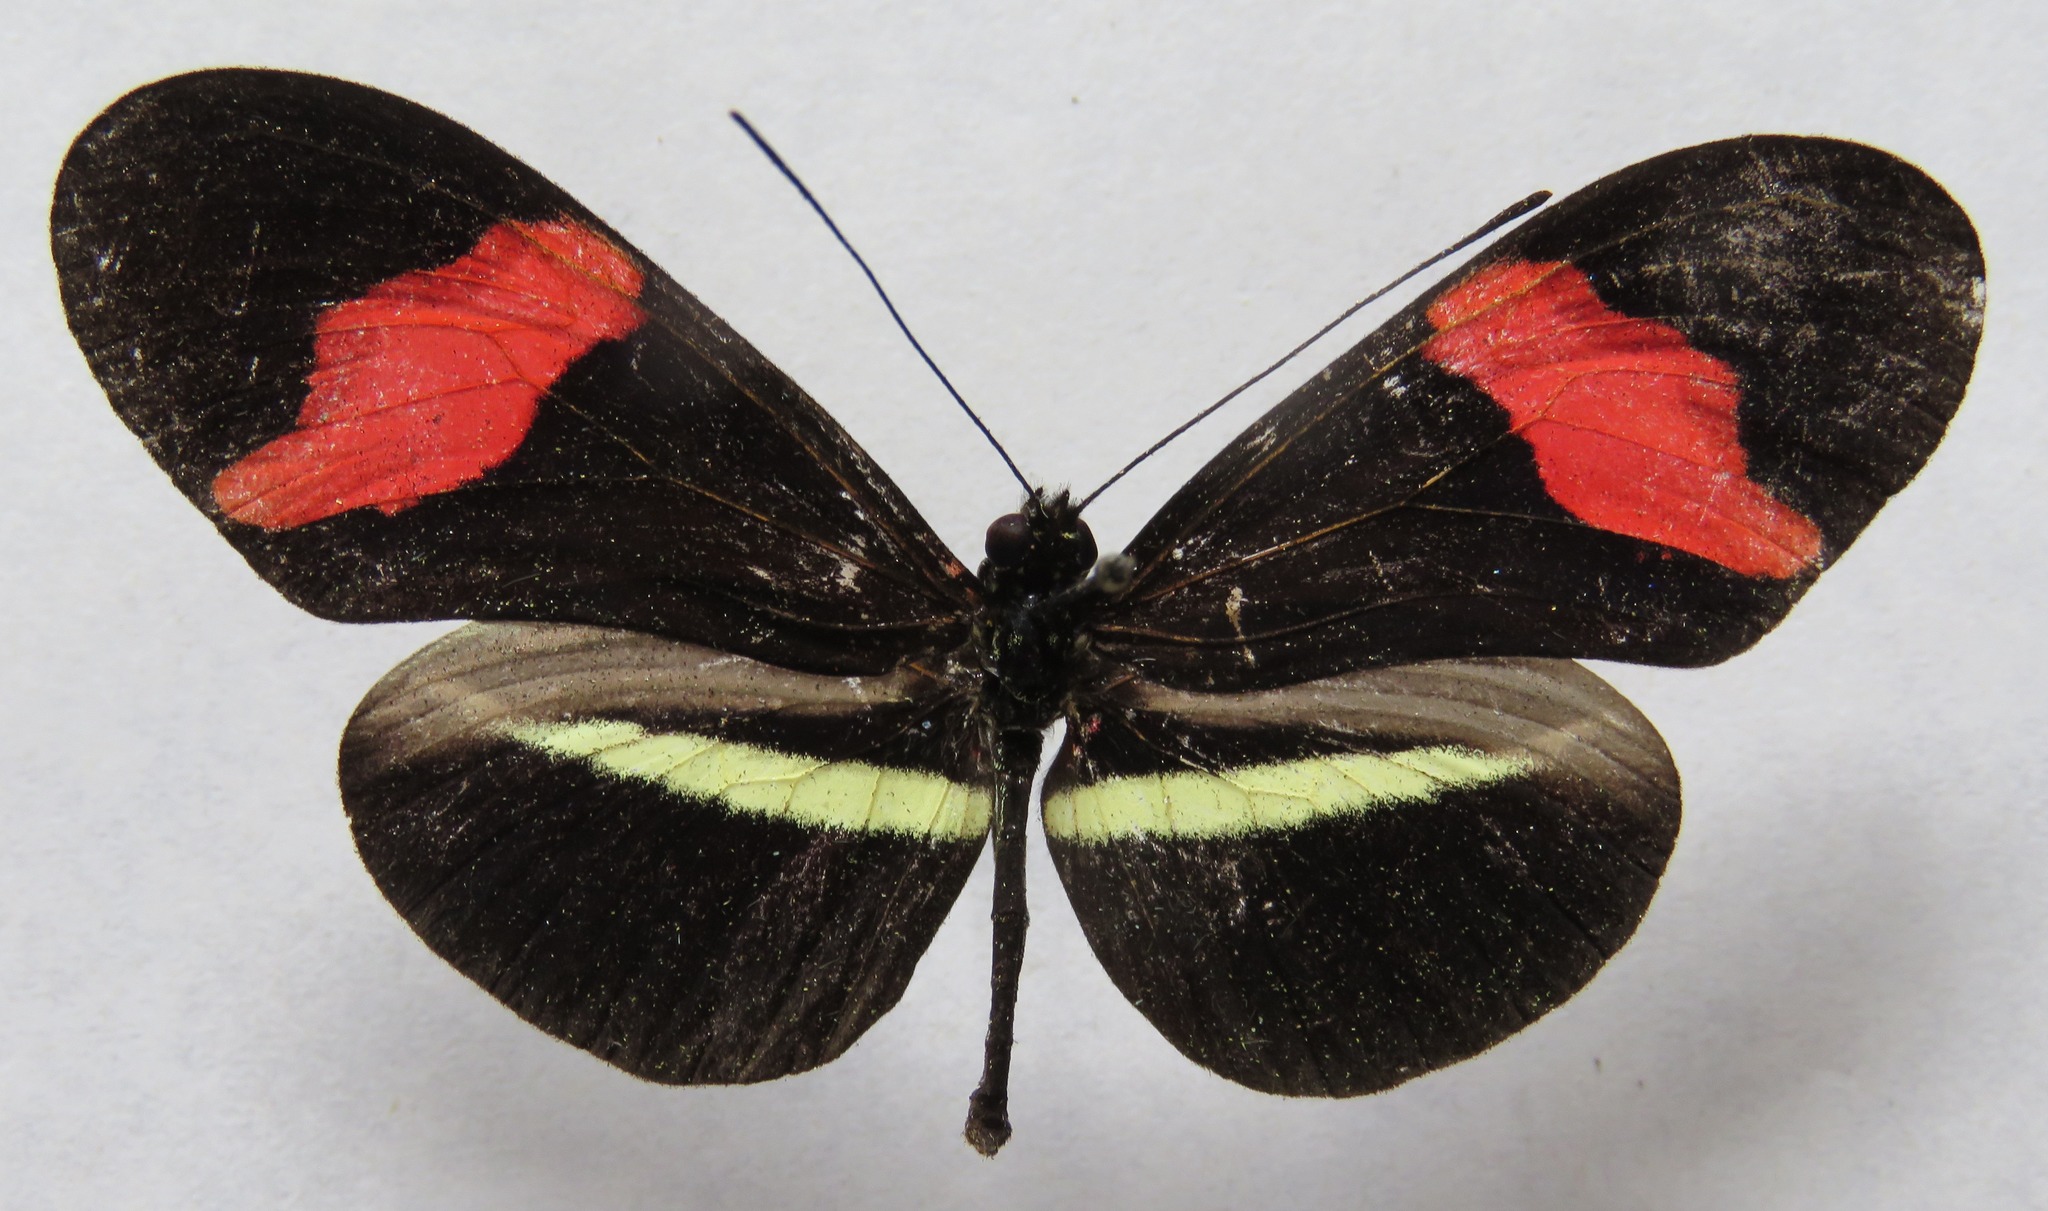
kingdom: Animalia
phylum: Arthropoda
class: Insecta
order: Lepidoptera
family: Nymphalidae
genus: Tirumala
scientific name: Tirumala petiverana
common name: Blue monarch
